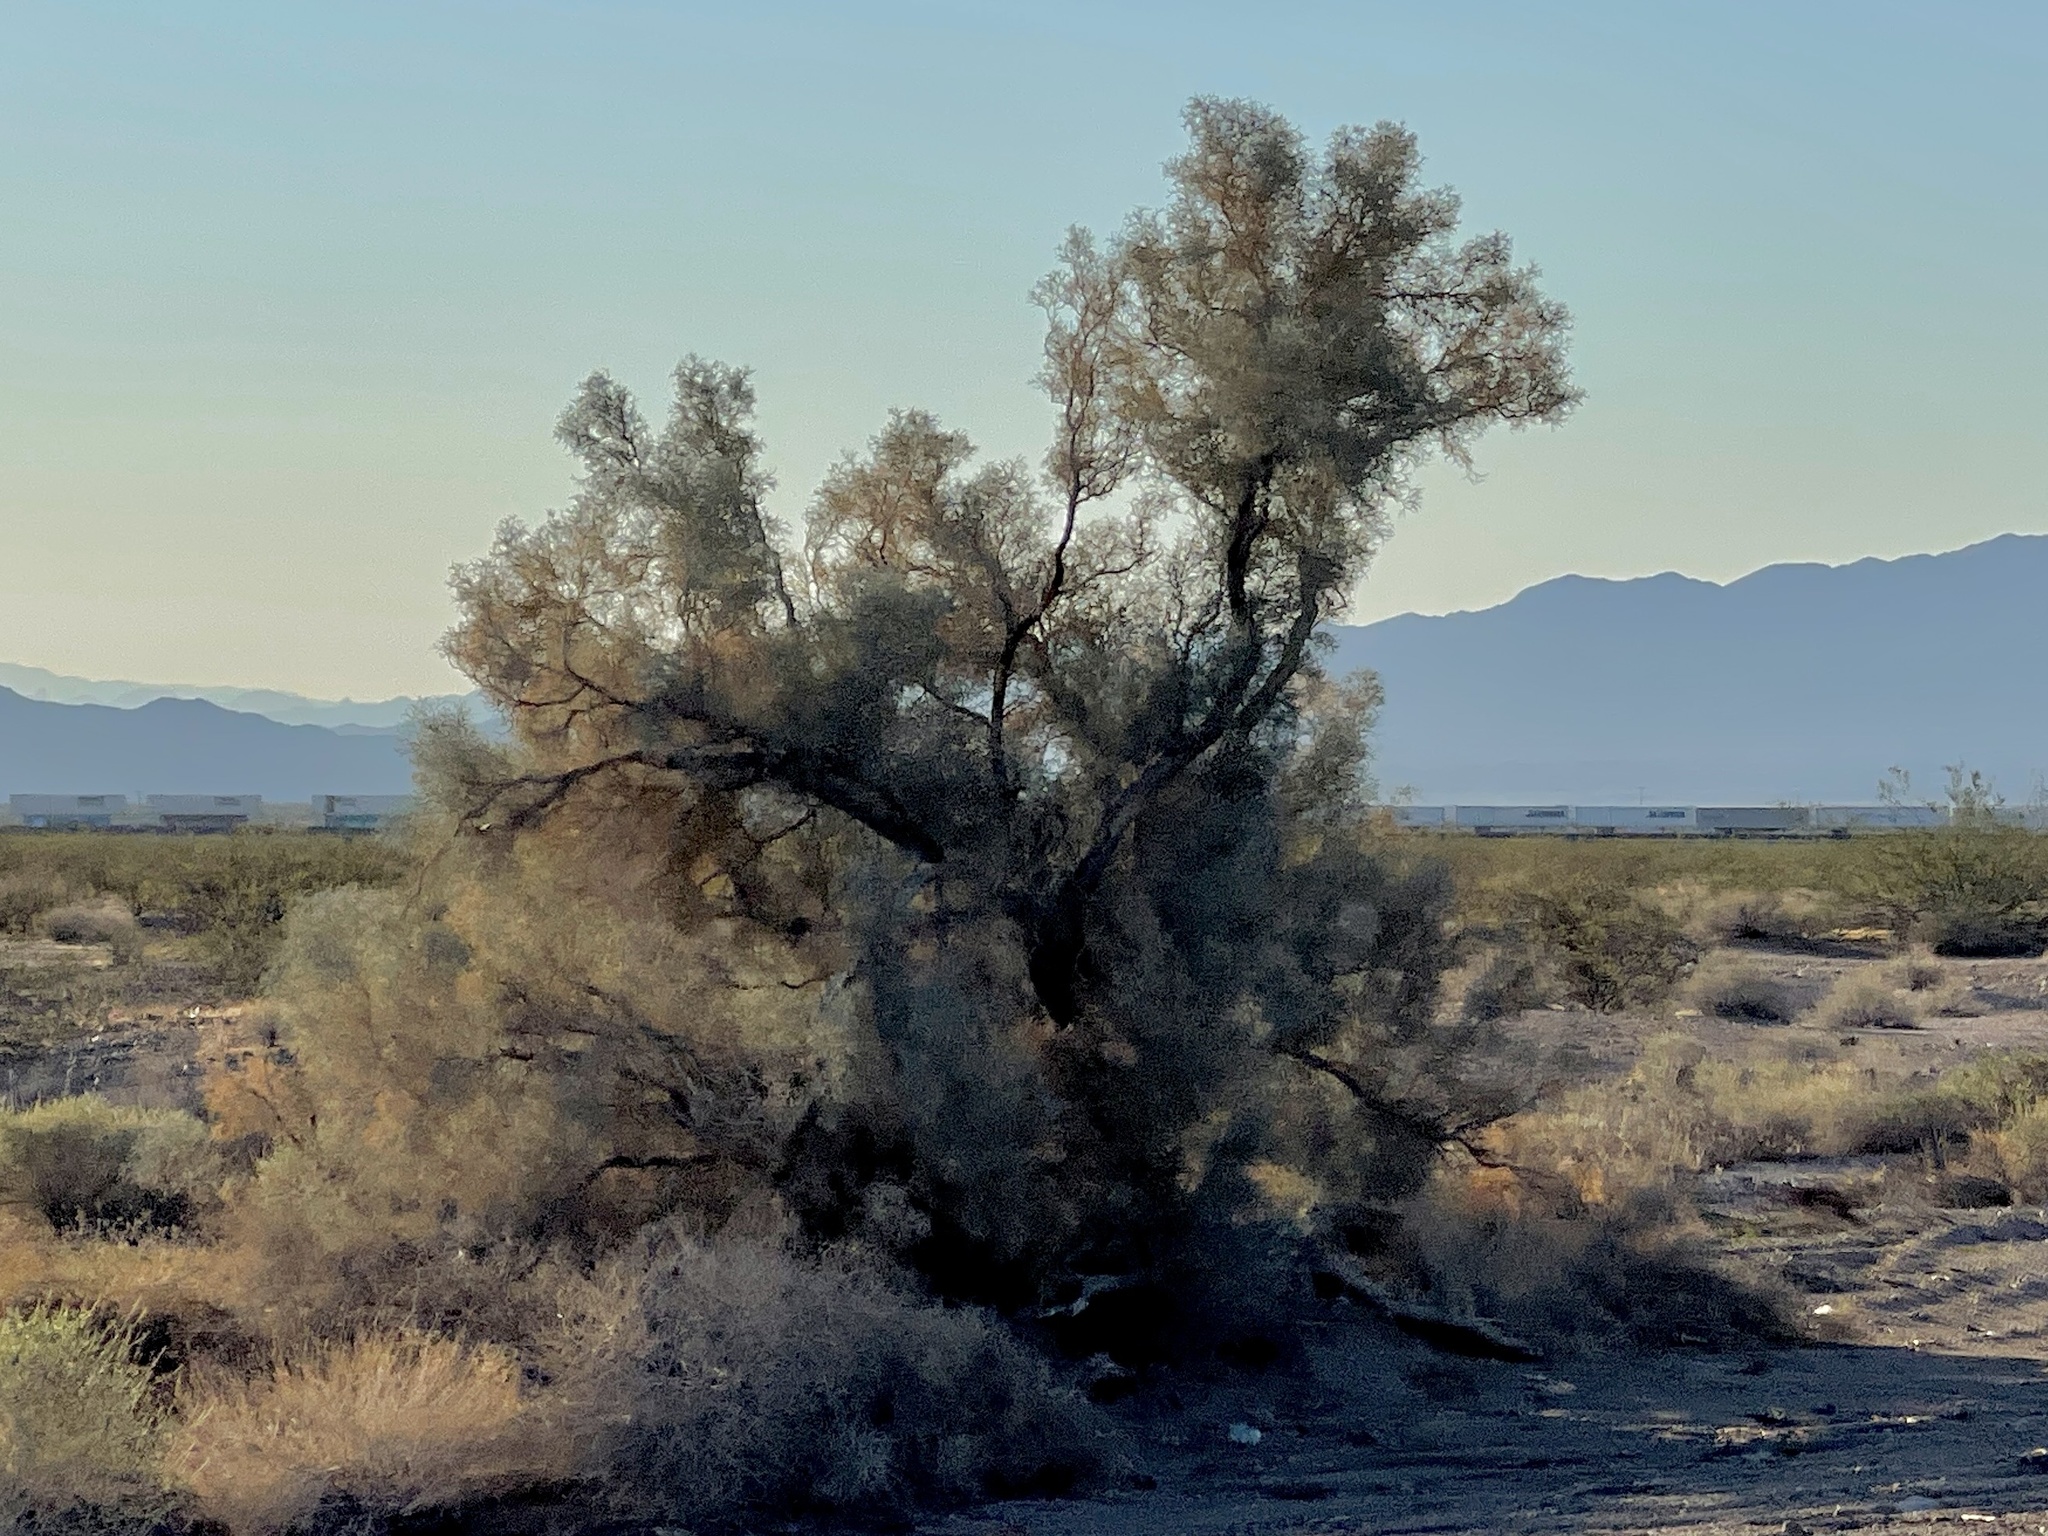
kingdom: Plantae
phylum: Tracheophyta
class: Magnoliopsida
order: Fabales
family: Fabaceae
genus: Psorothamnus
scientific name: Psorothamnus spinosus
